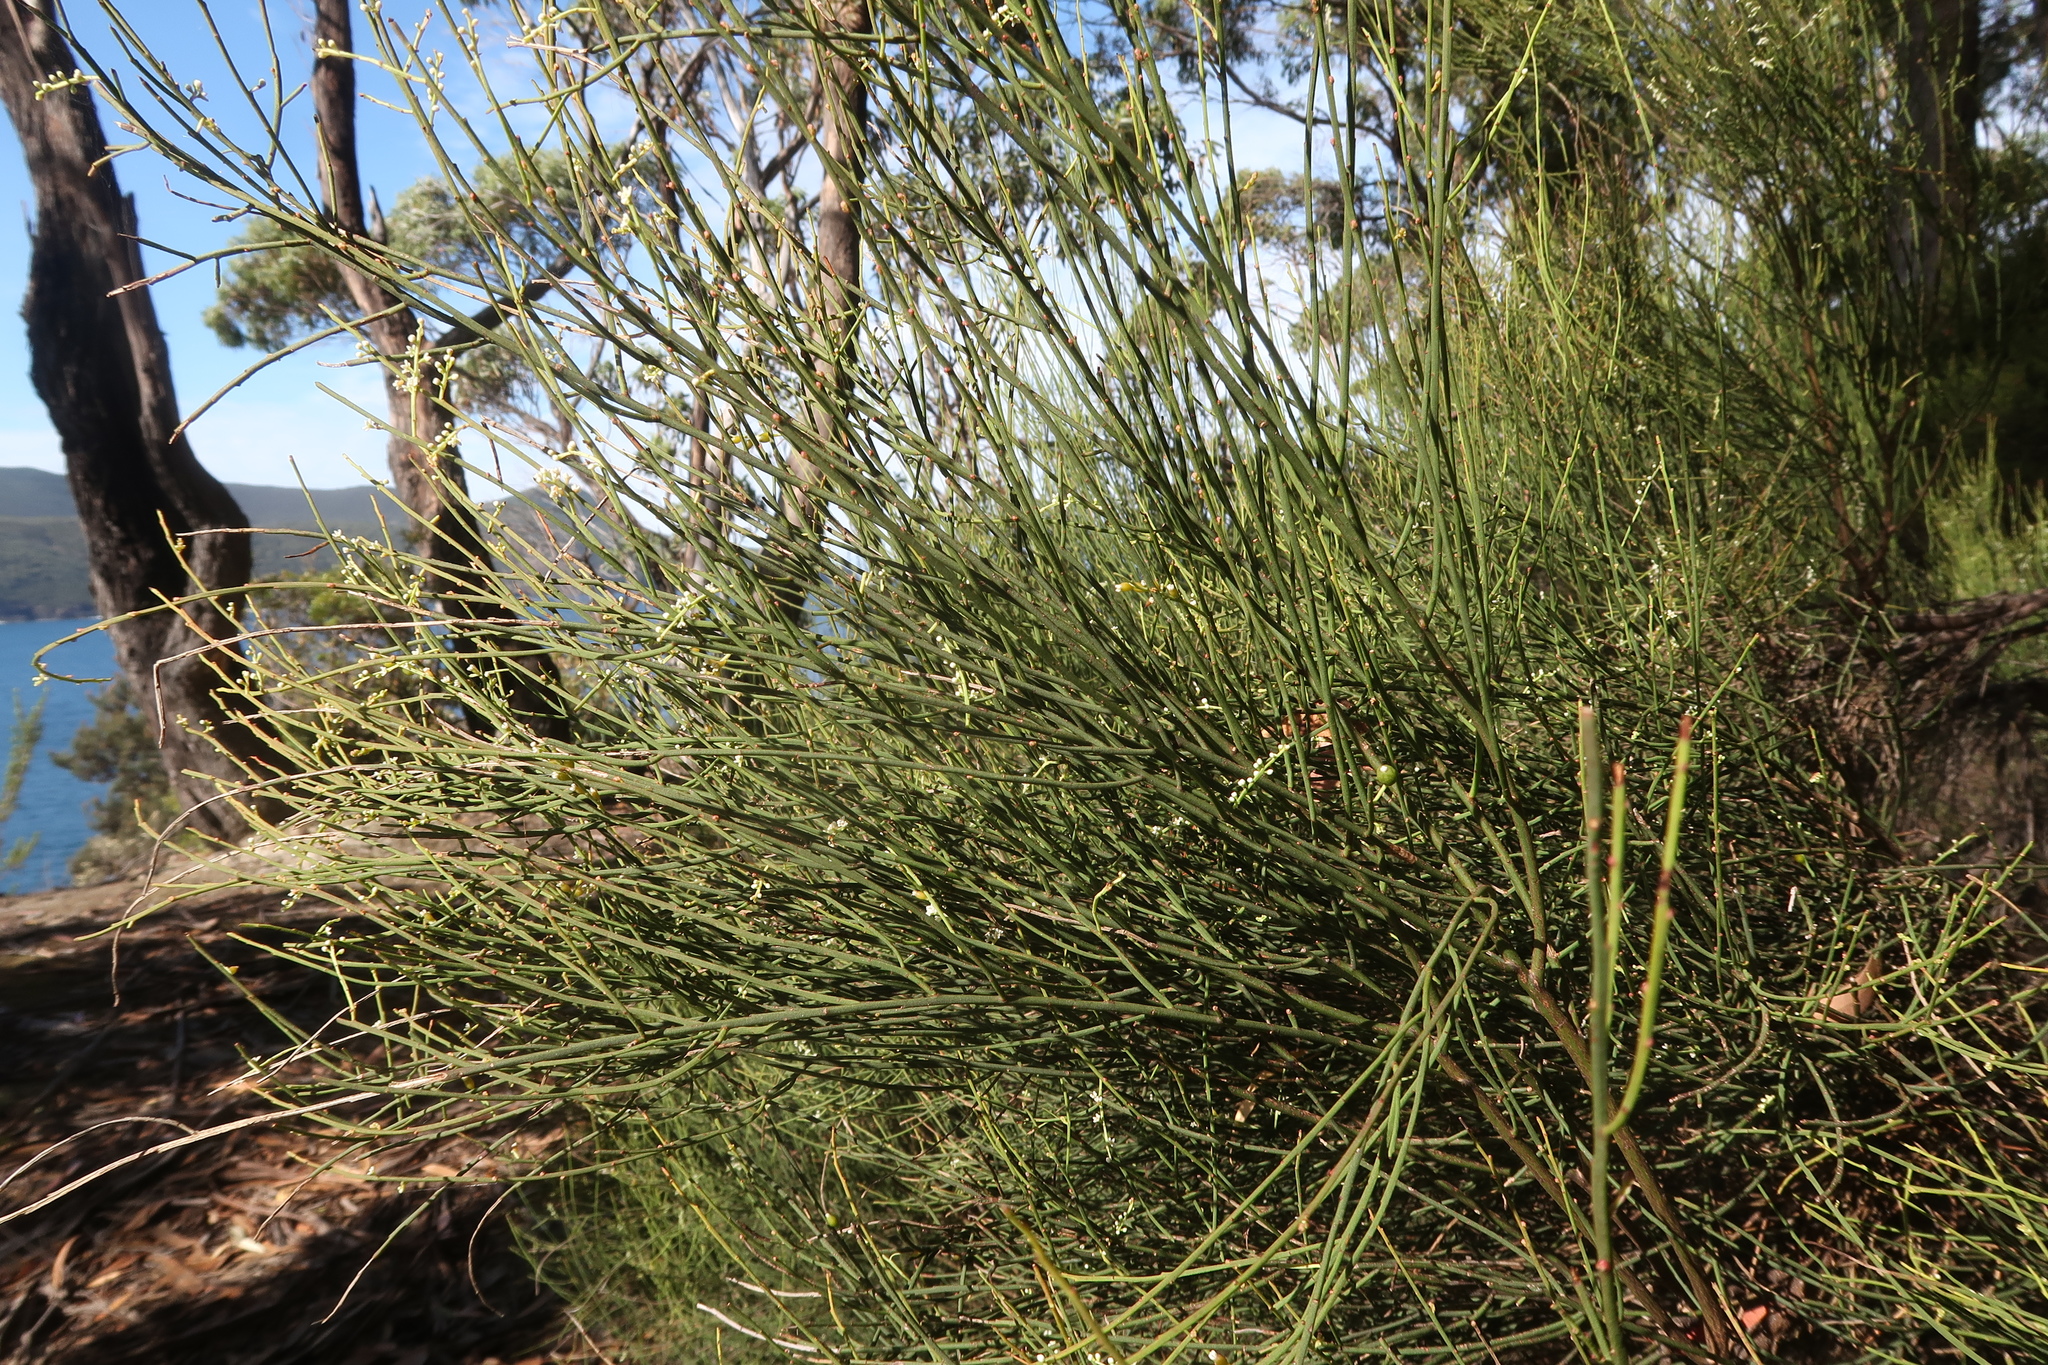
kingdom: Plantae
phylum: Tracheophyta
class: Magnoliopsida
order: Santalales
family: Amphorogynaceae
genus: Leptomeria
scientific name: Leptomeria drupacea
